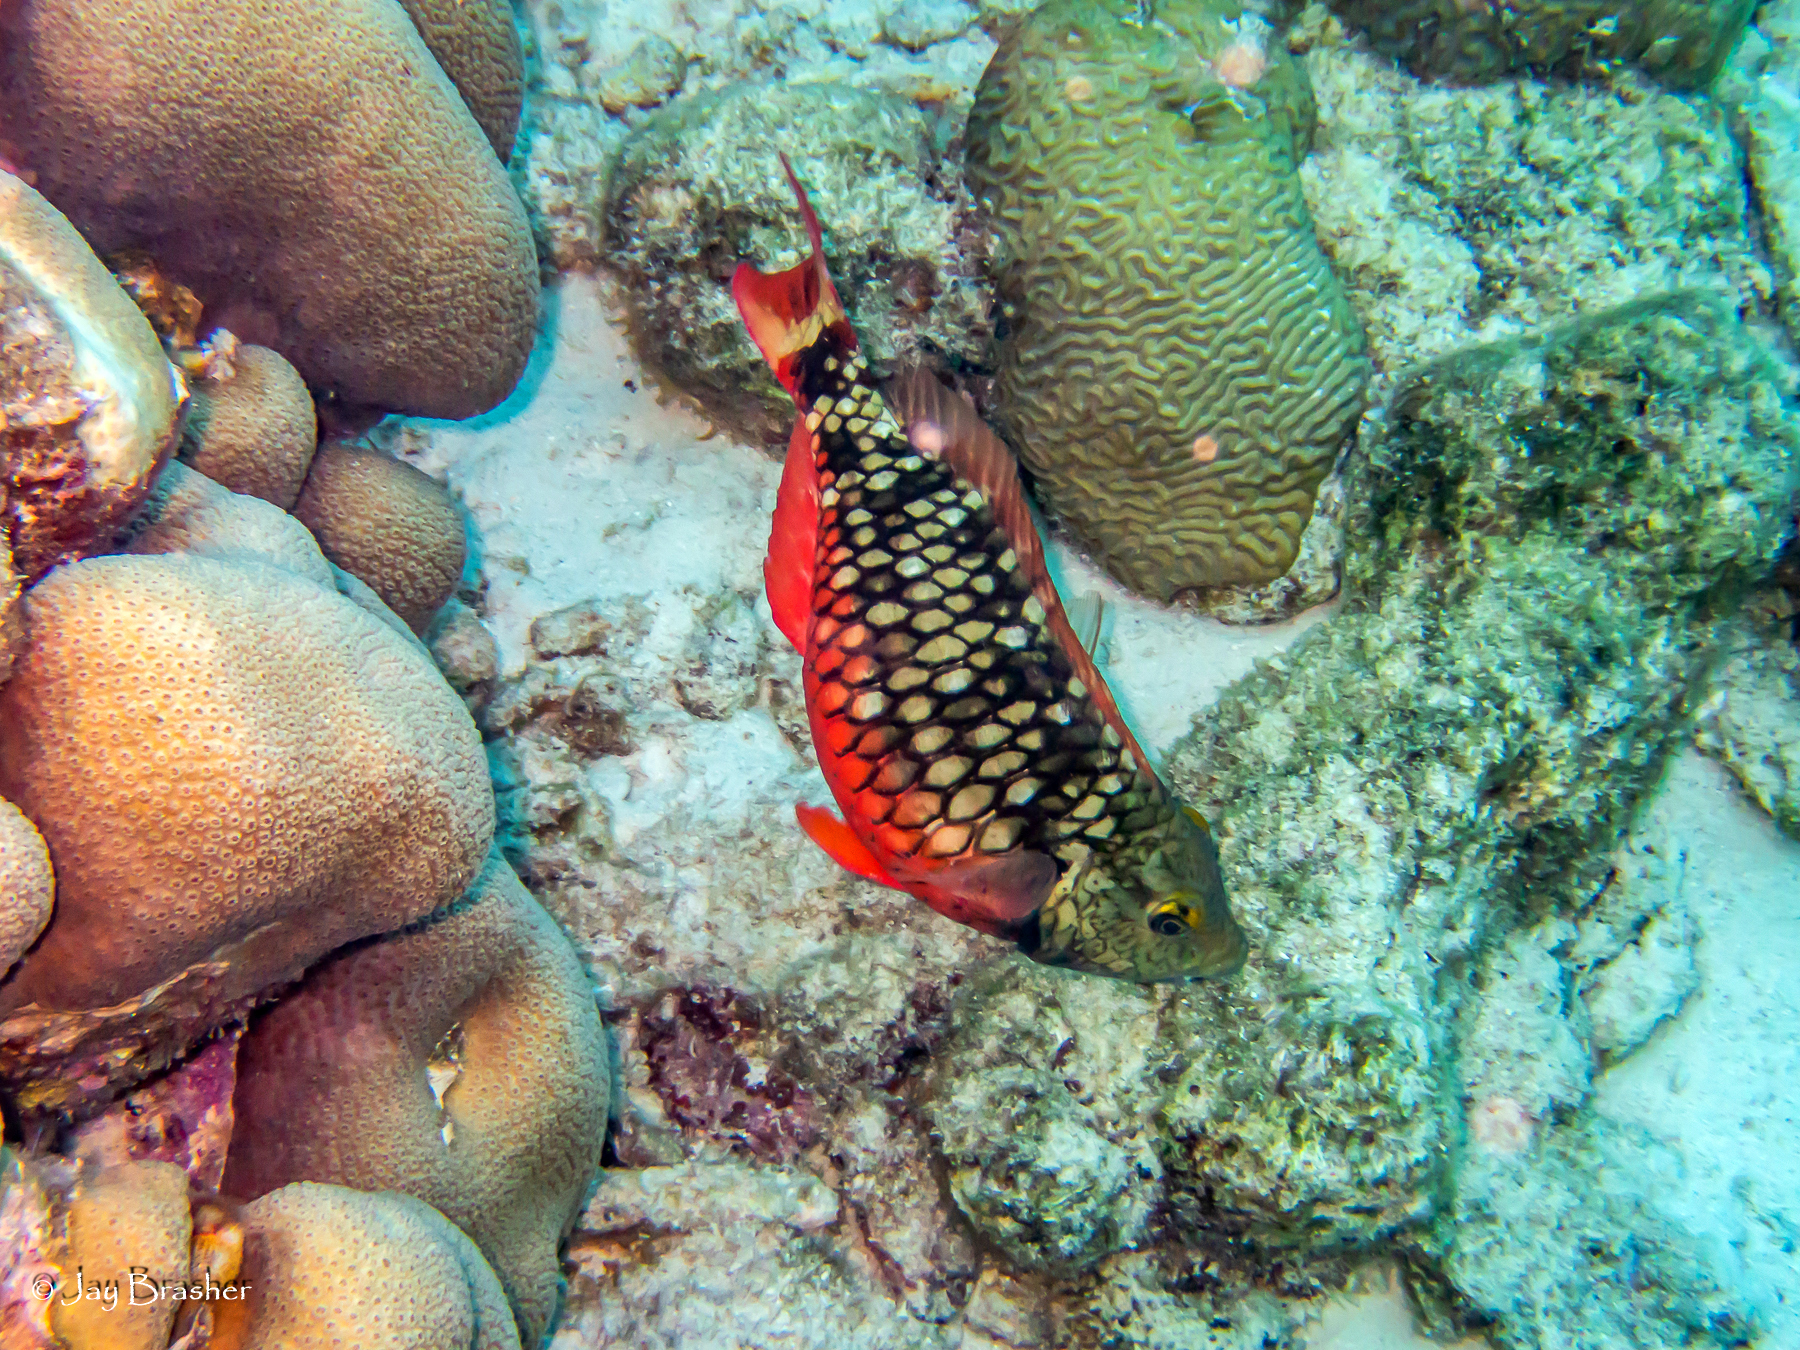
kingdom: Animalia
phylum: Chordata
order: Perciformes
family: Scaridae
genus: Sparisoma
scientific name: Sparisoma viride
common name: Stoplight parrotfish
